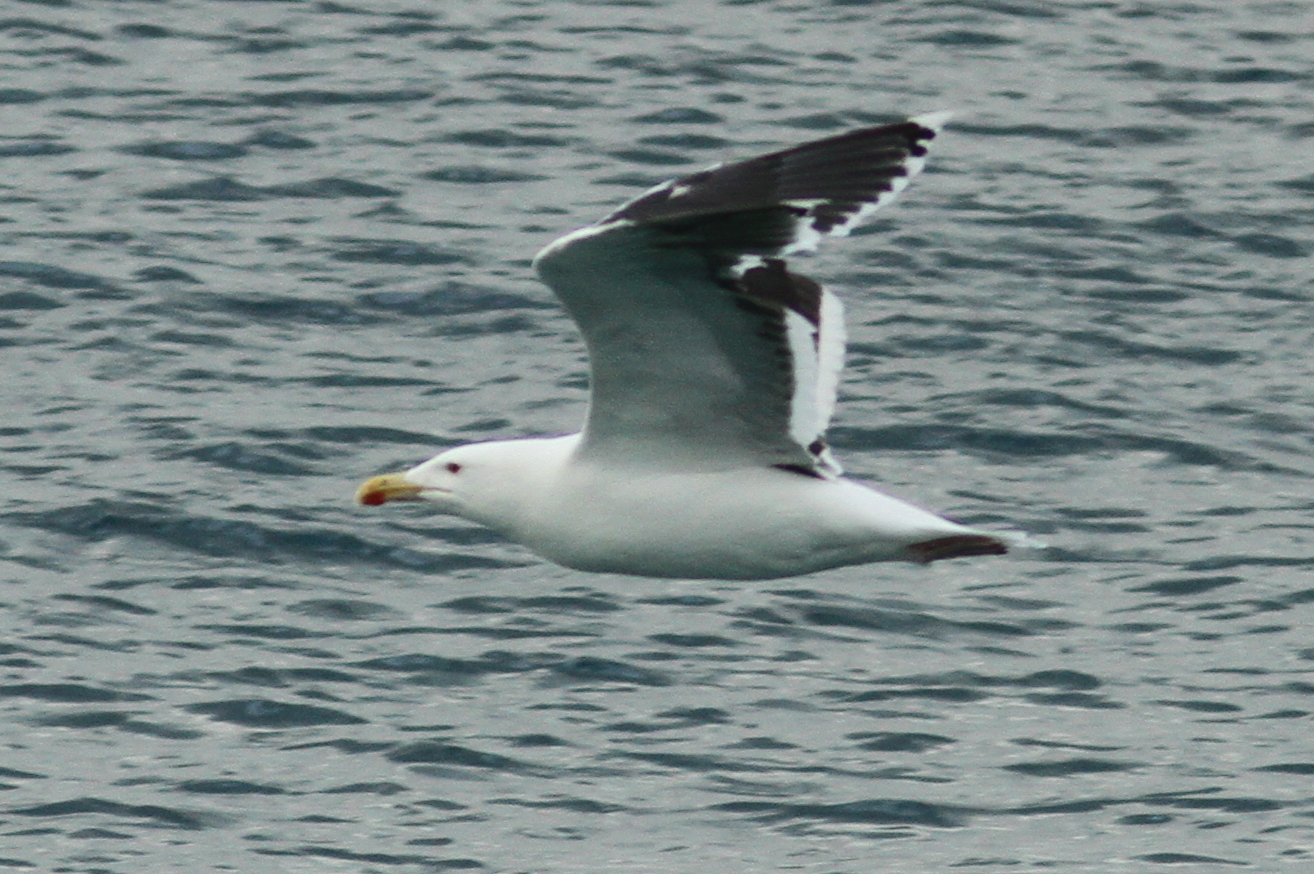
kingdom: Animalia
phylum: Chordata
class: Aves
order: Charadriiformes
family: Laridae
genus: Larus
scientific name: Larus marinus
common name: Great black-backed gull
